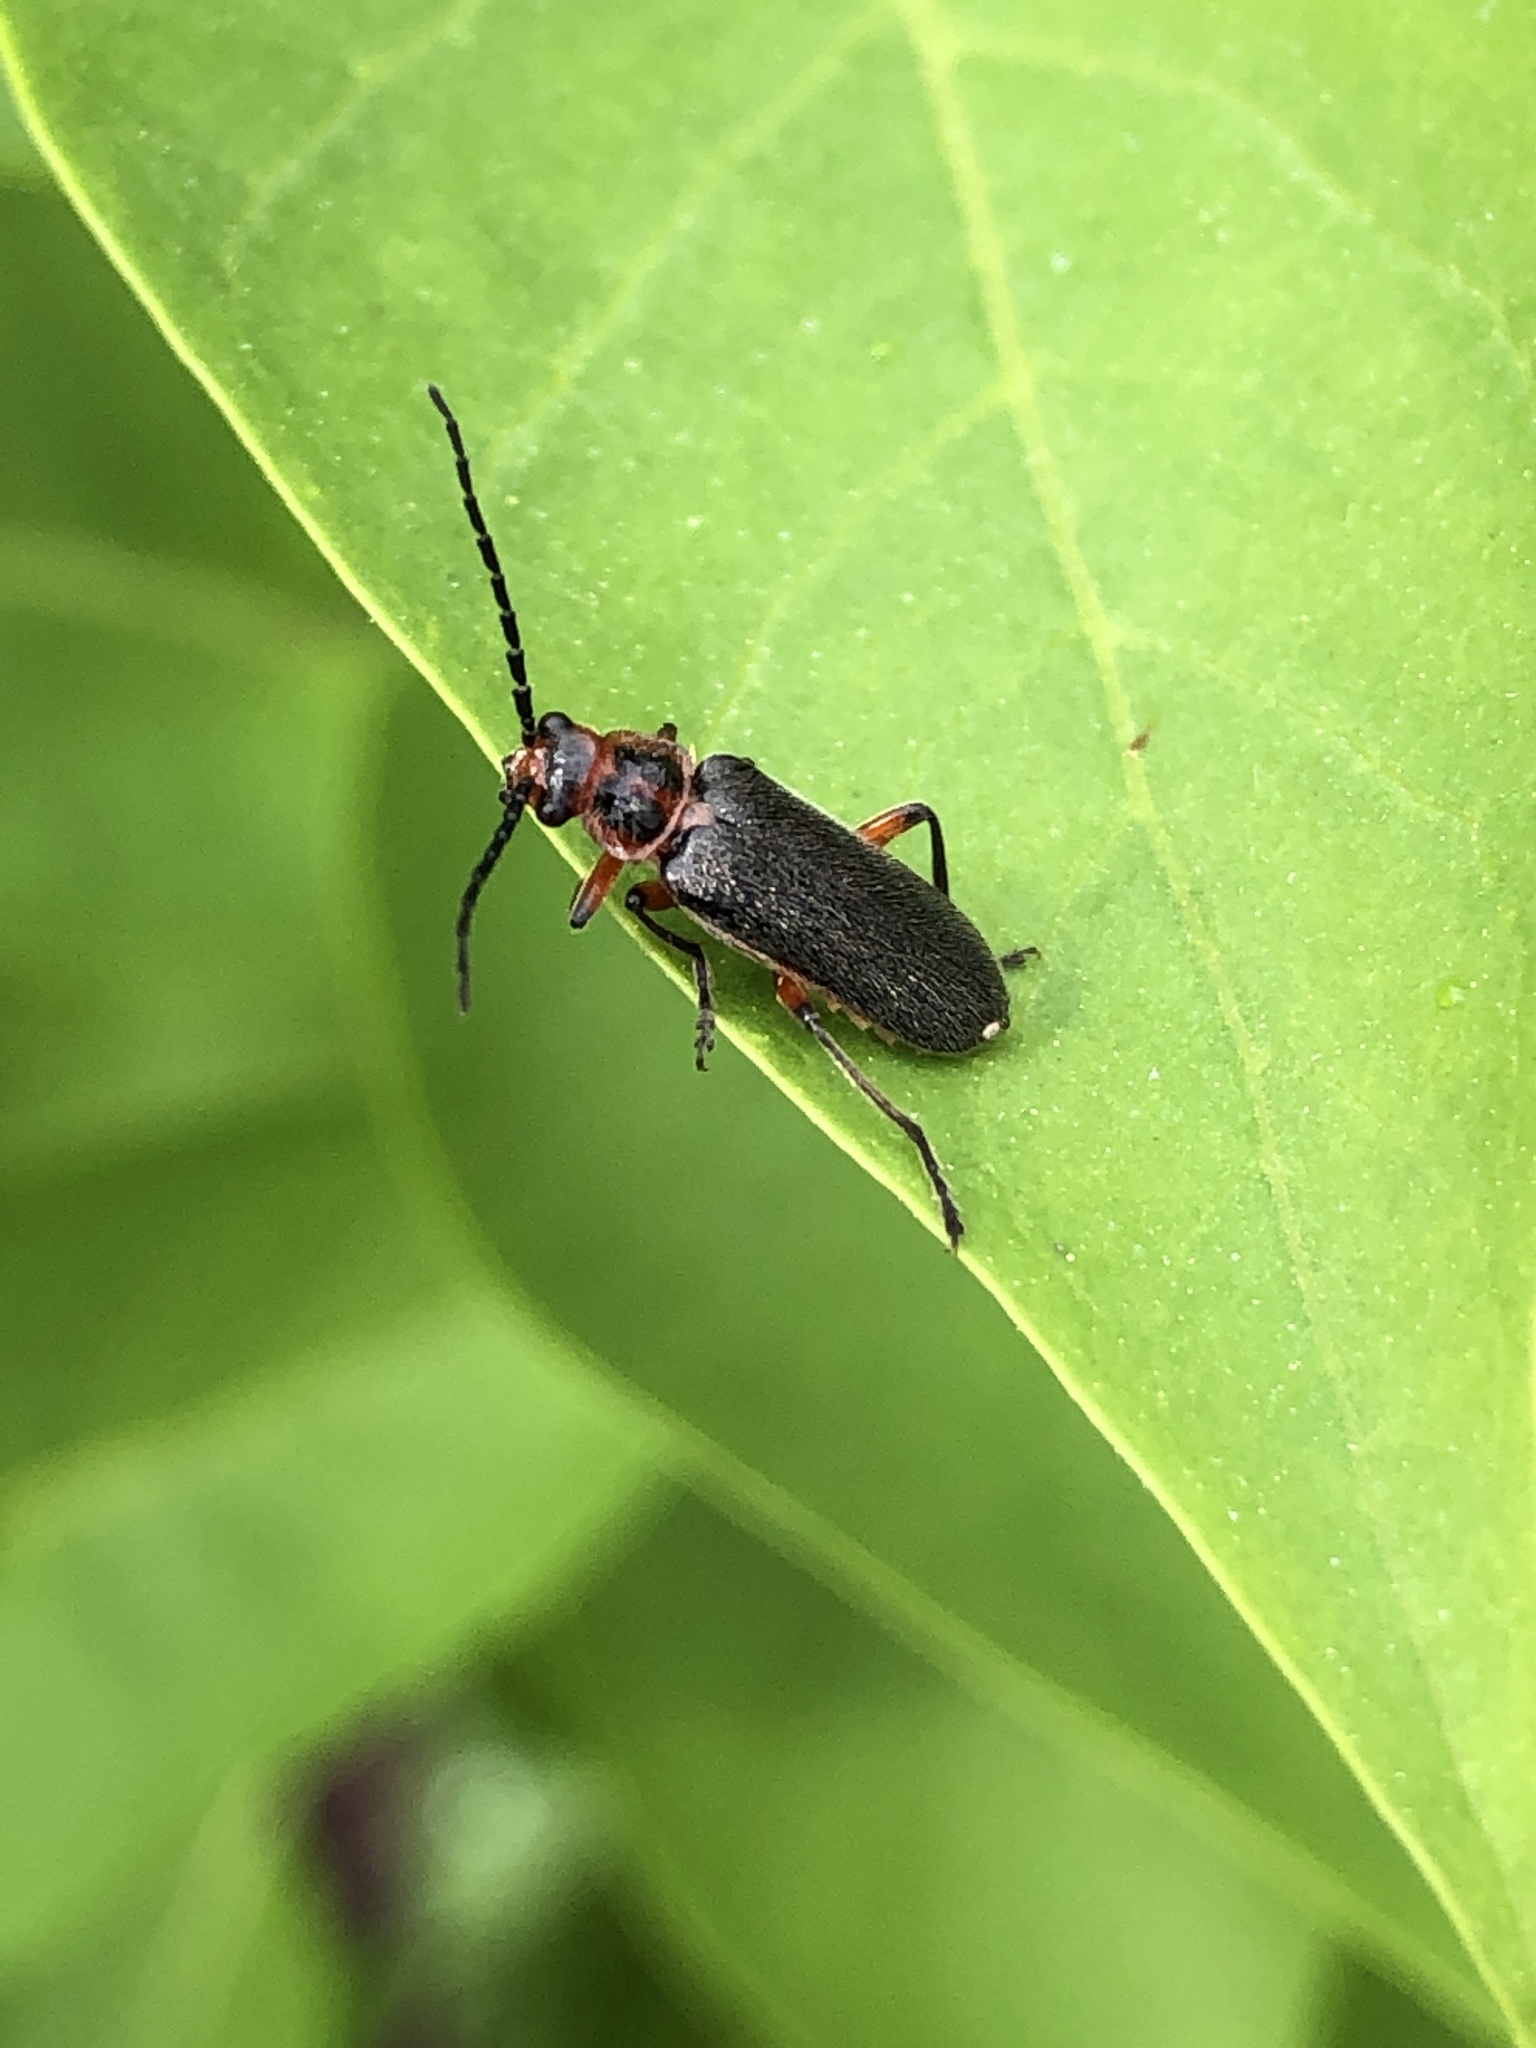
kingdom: Animalia
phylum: Arthropoda
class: Insecta
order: Coleoptera
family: Cantharidae
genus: Atalantycha
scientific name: Atalantycha bilineata
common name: Two-lined leatherwing
